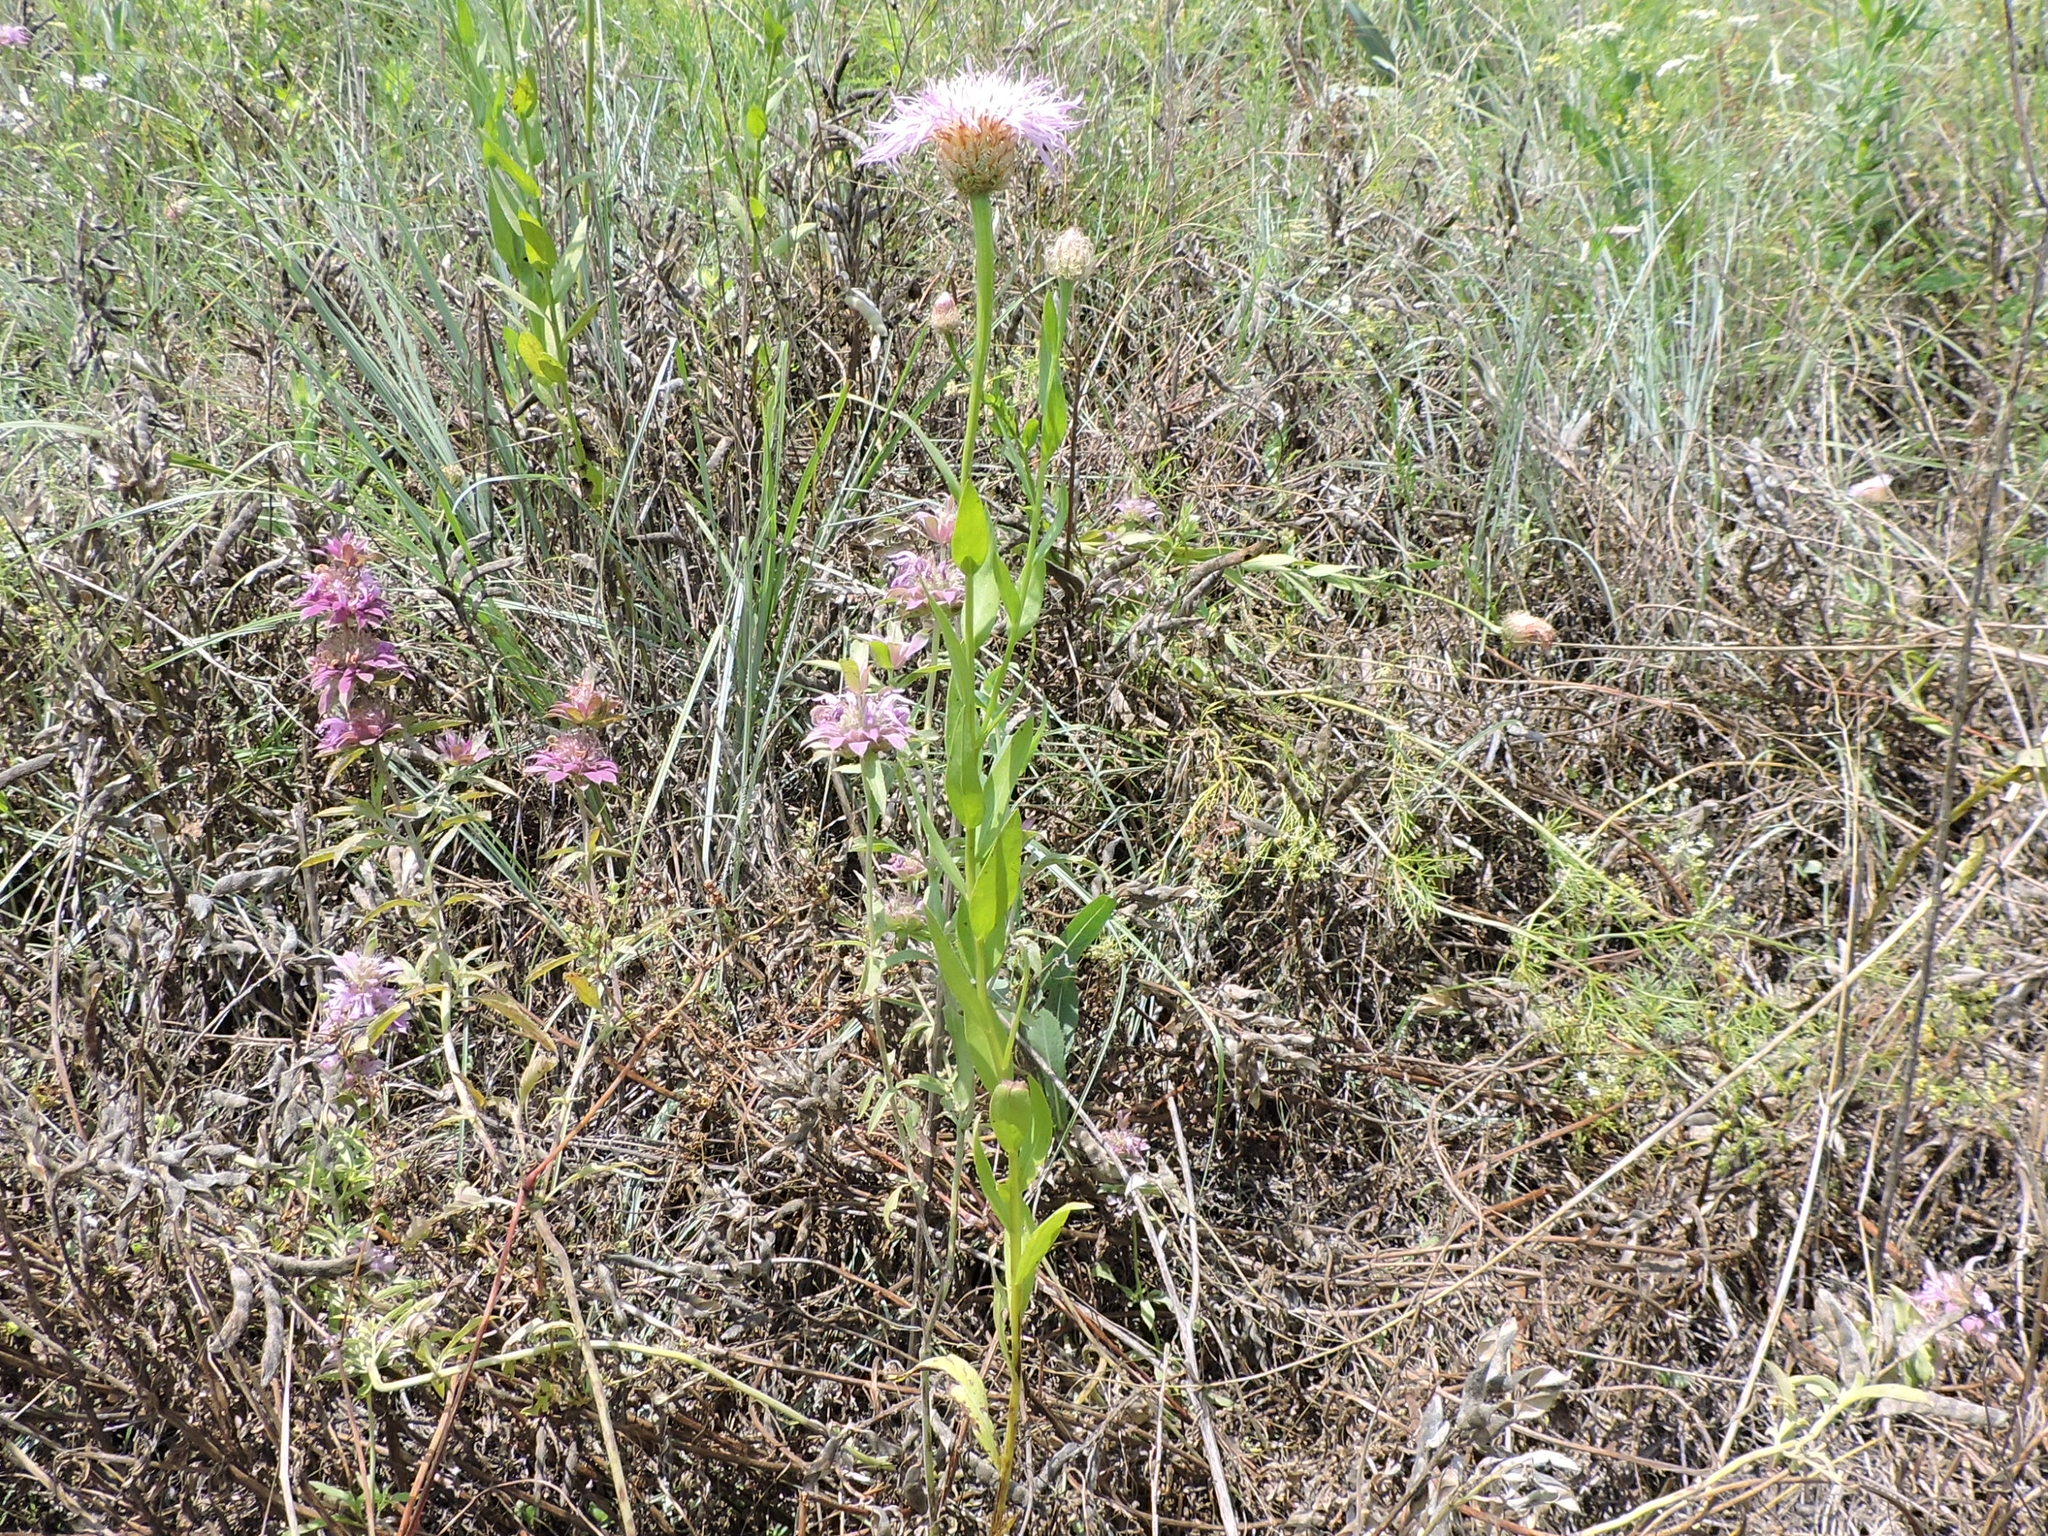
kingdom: Plantae
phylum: Tracheophyta
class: Magnoliopsida
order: Asterales
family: Asteraceae
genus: Plectocephalus
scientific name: Plectocephalus americanus
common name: American basket-flower
